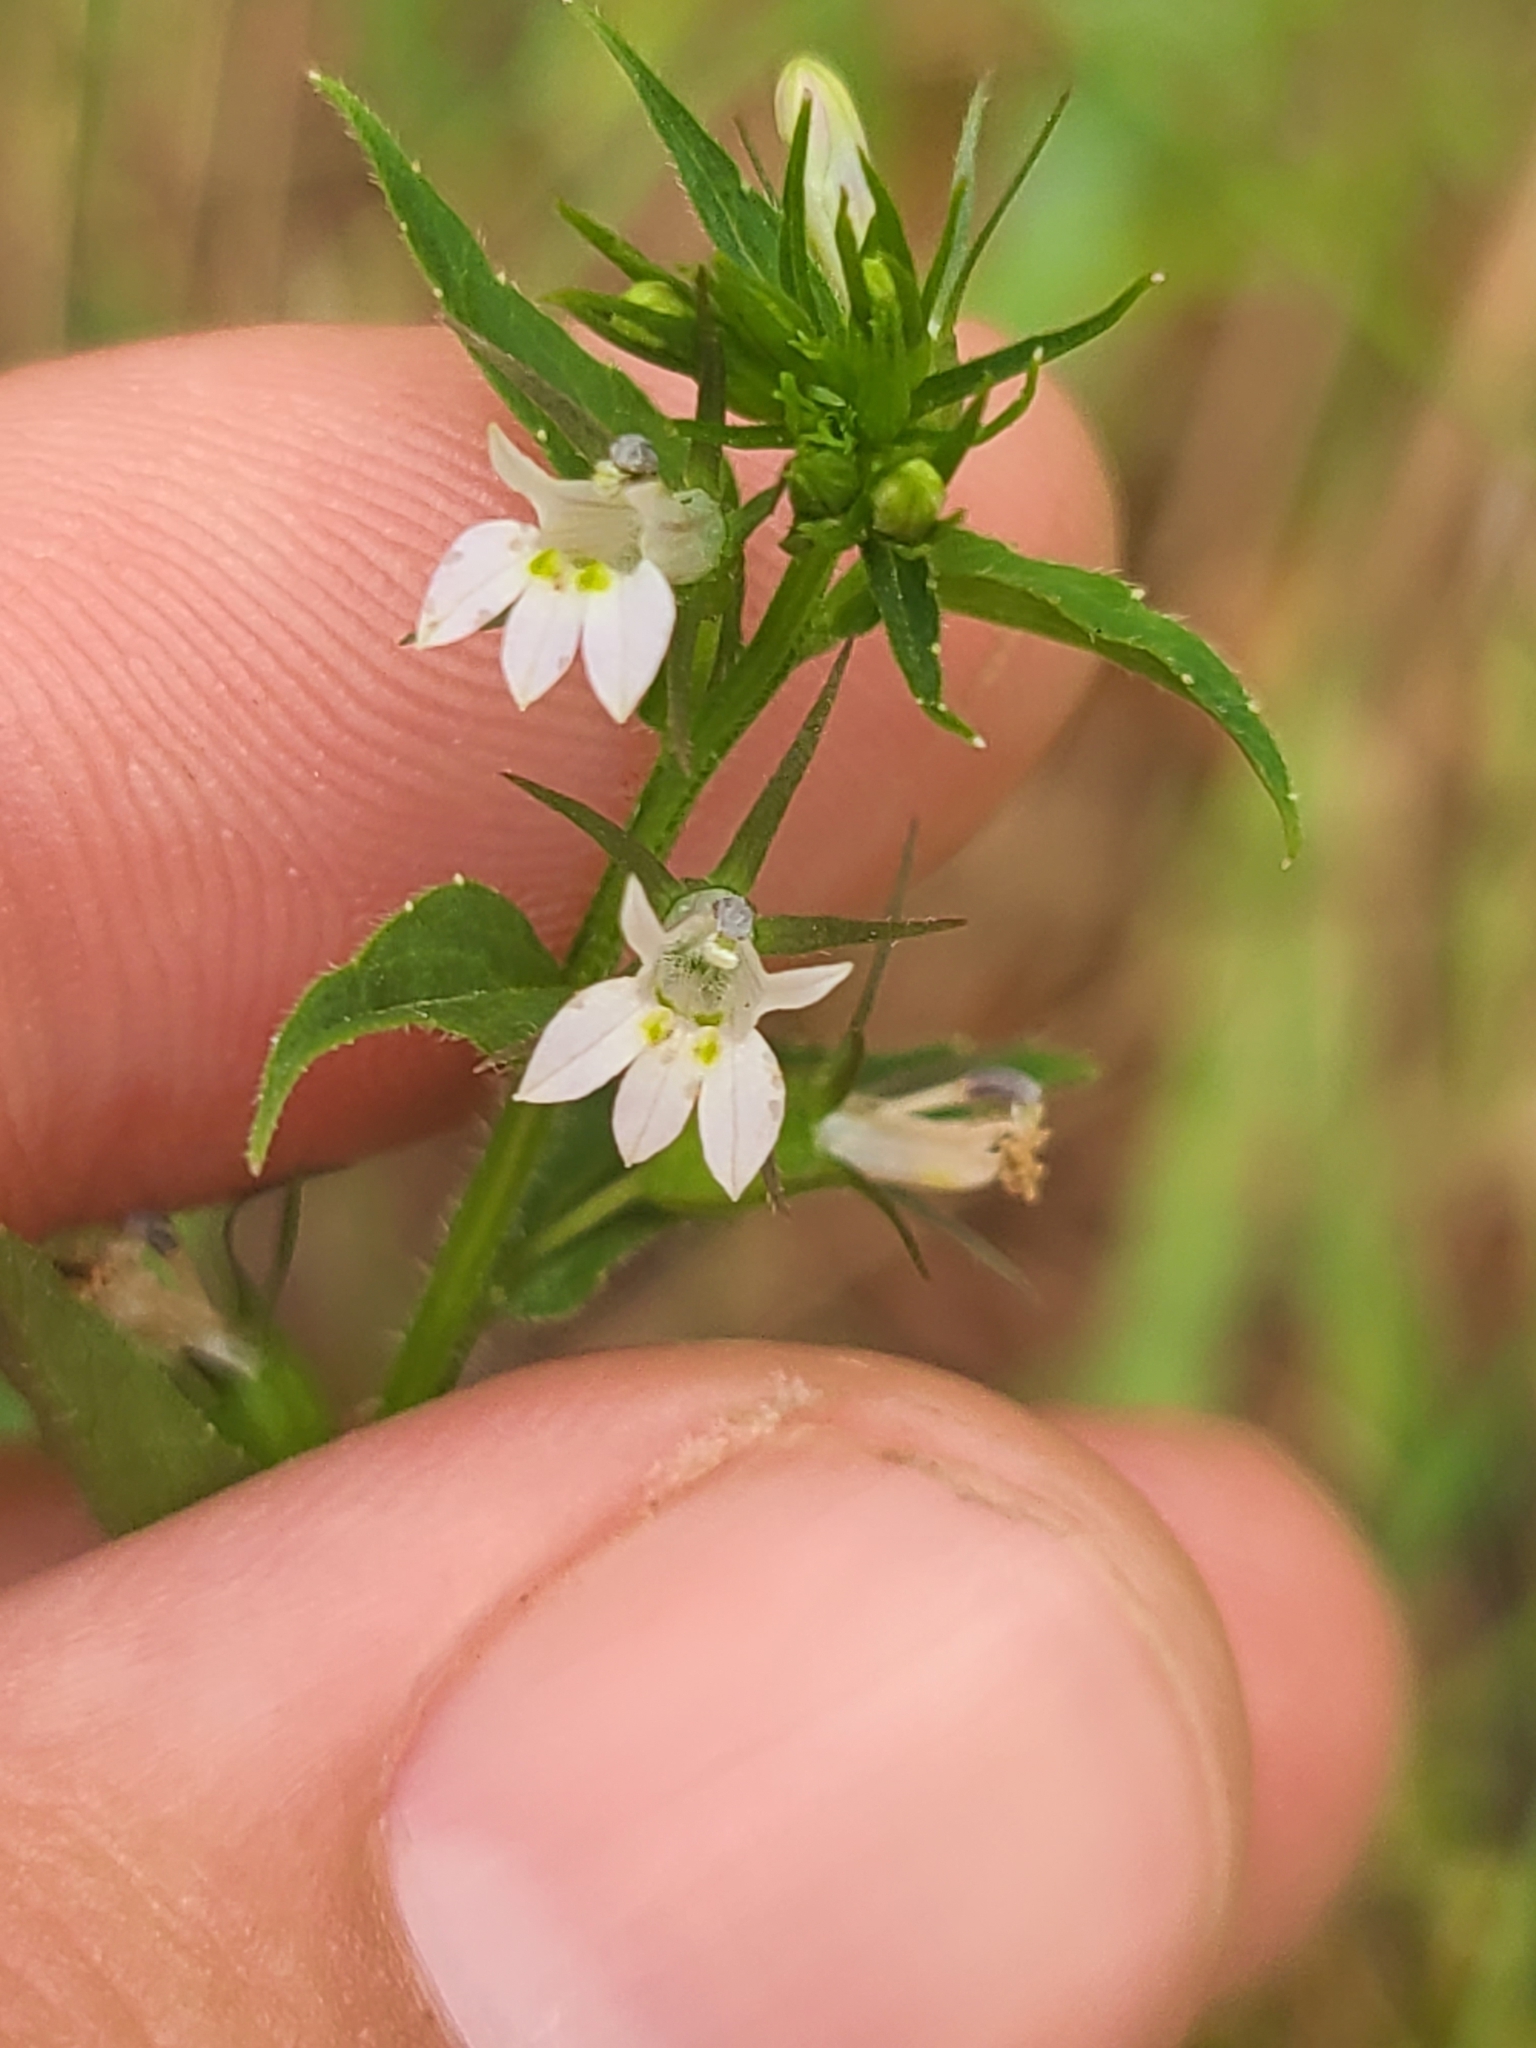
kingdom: Plantae
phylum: Tracheophyta
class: Magnoliopsida
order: Asterales
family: Campanulaceae
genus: Lobelia
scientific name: Lobelia inflata
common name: Indian tobacco
